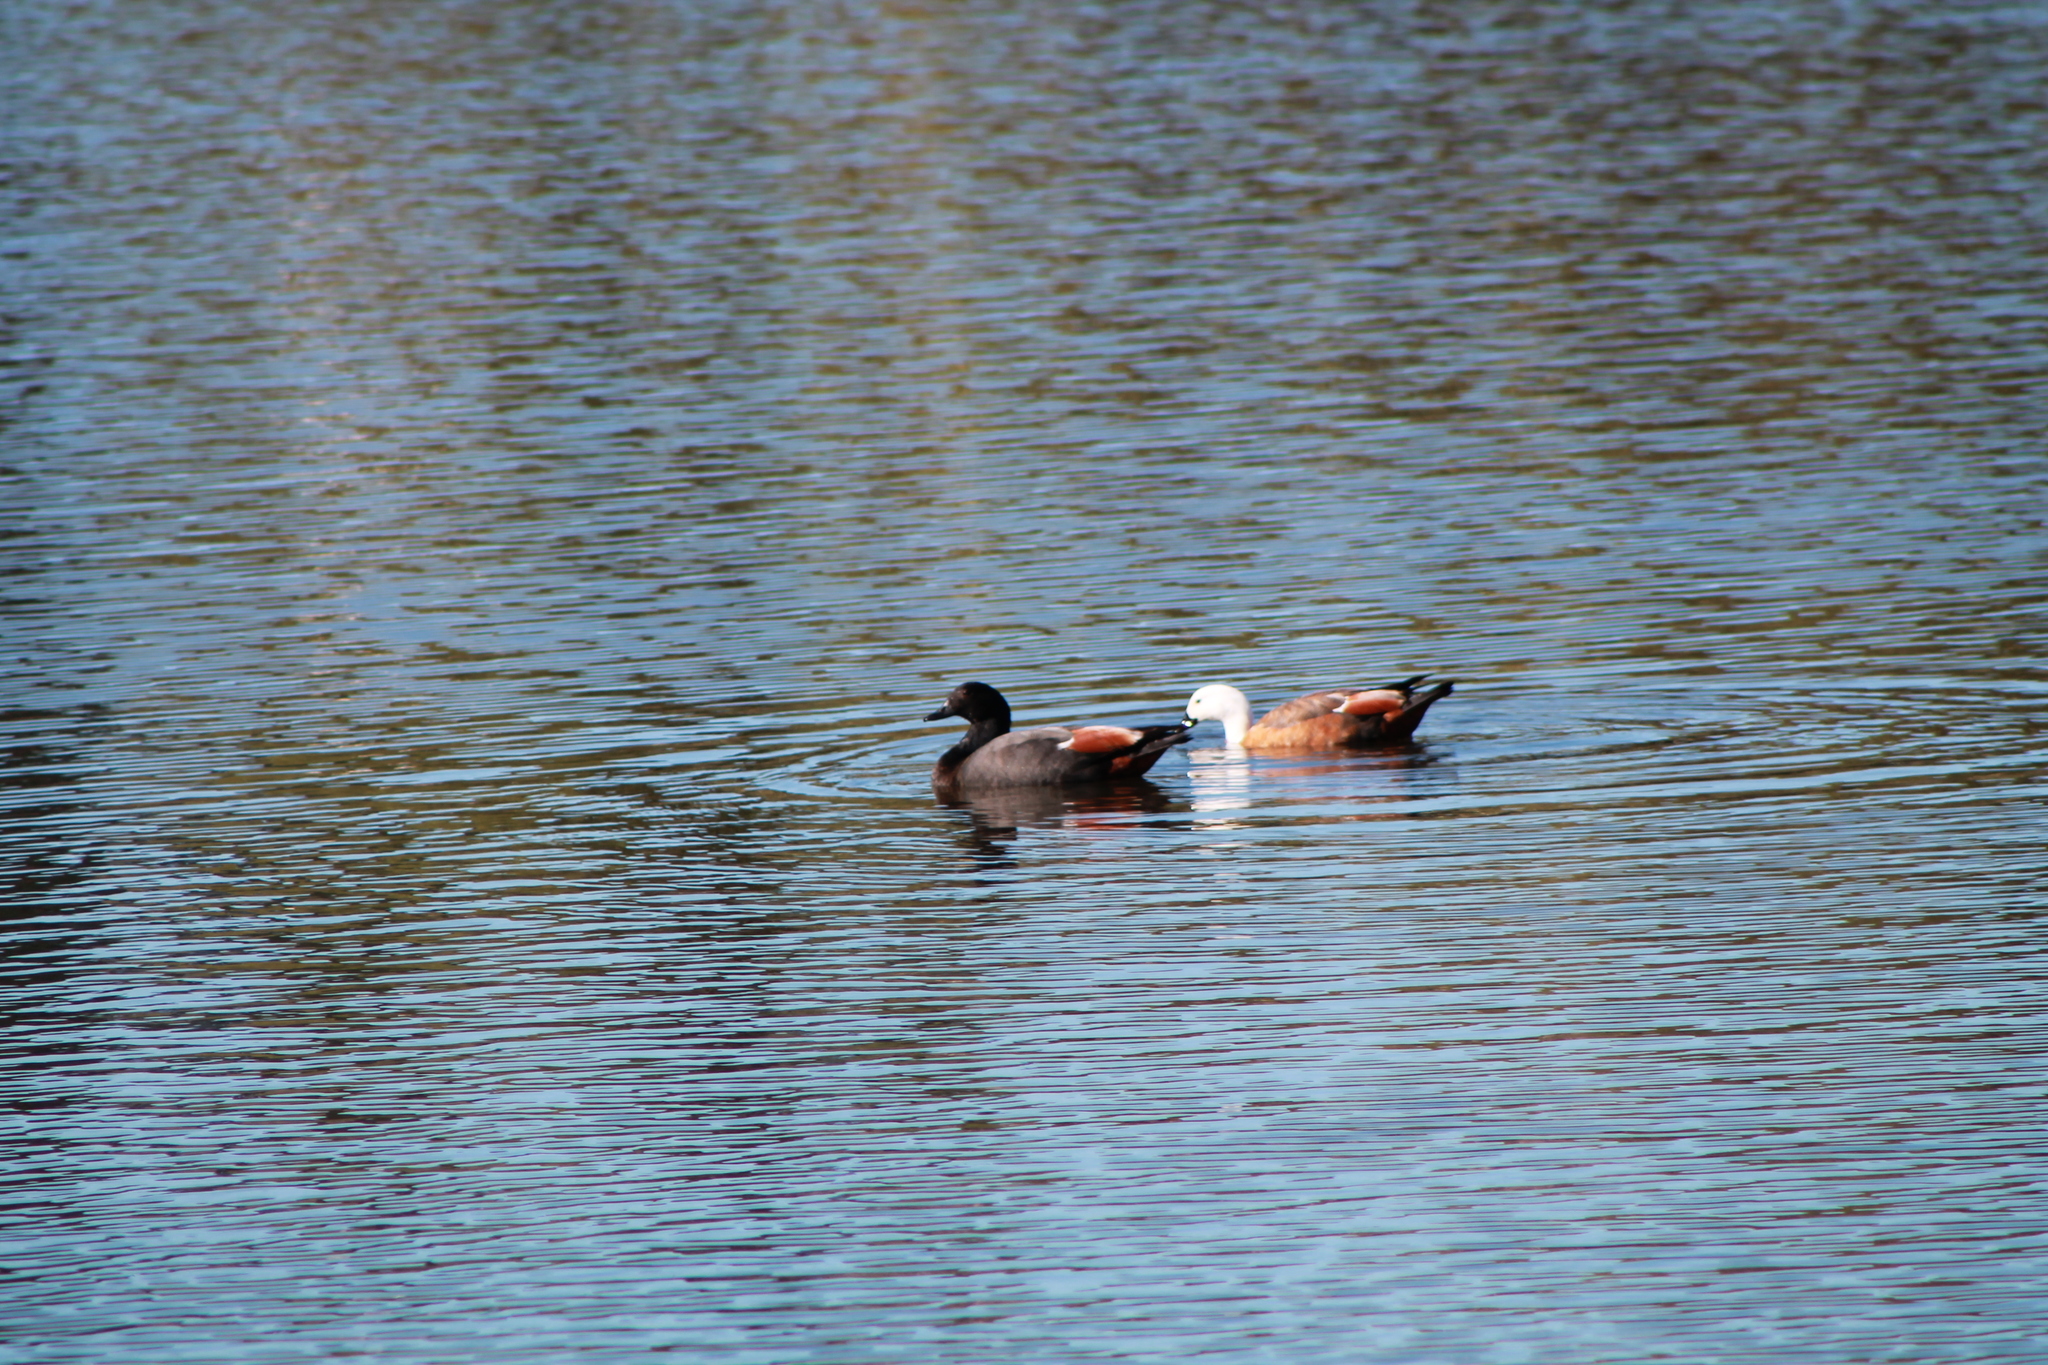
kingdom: Animalia
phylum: Chordata
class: Aves
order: Anseriformes
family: Anatidae
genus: Tadorna
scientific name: Tadorna variegata
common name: Paradise shelduck
